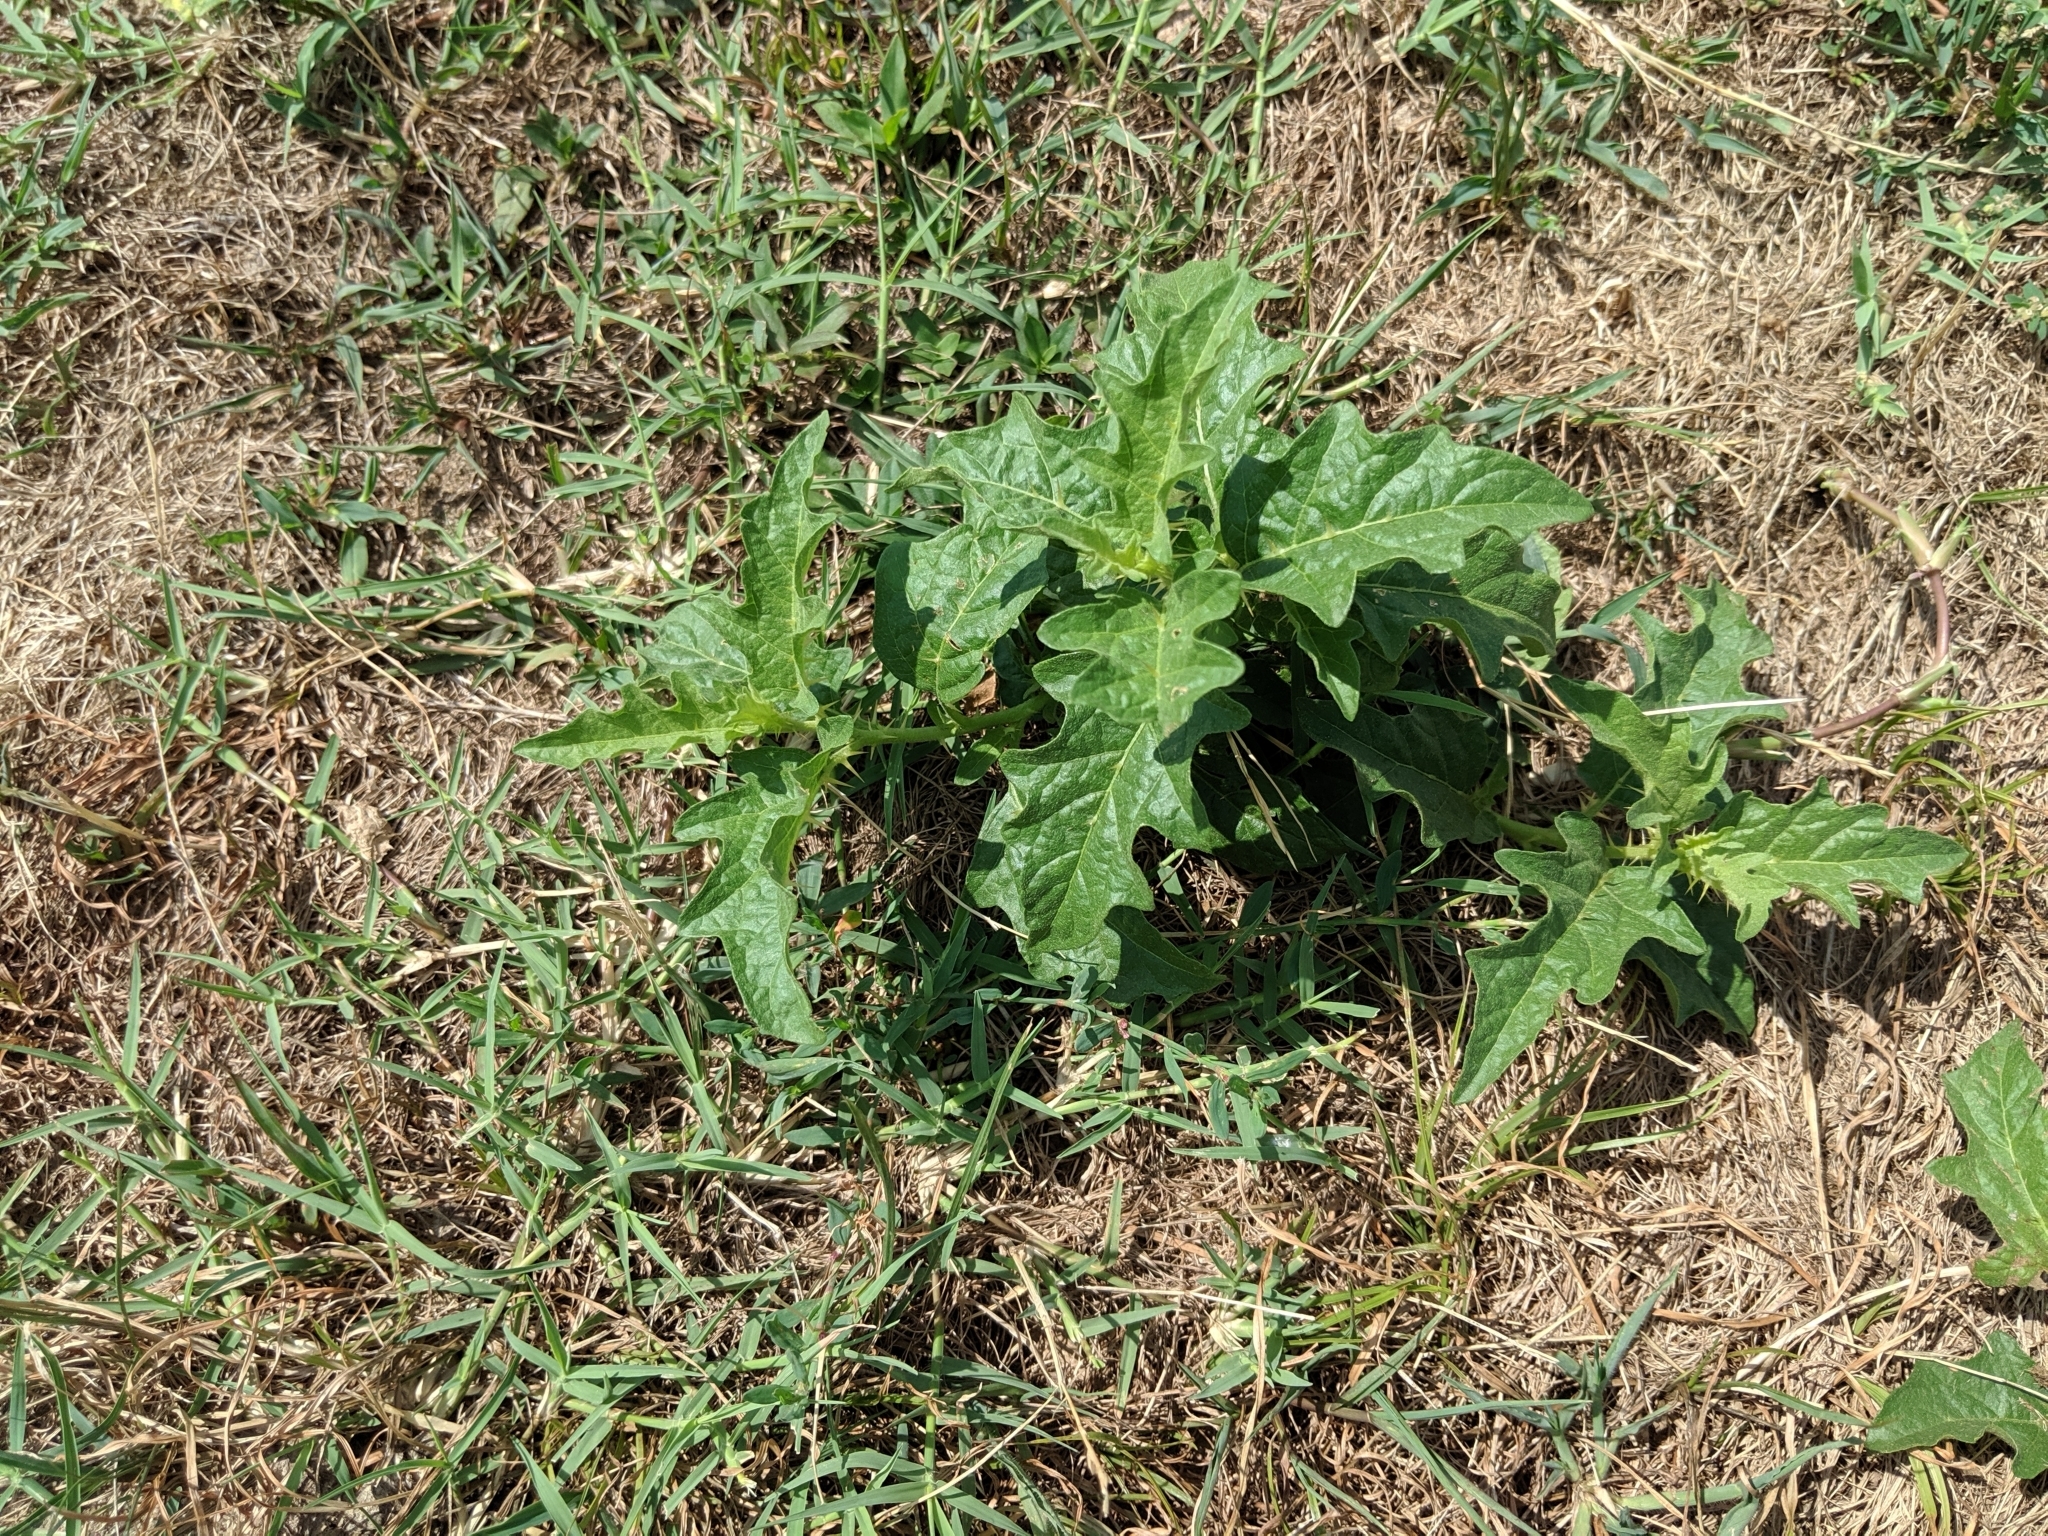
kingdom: Plantae
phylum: Tracheophyta
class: Magnoliopsida
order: Solanales
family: Solanaceae
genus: Solanum
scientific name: Solanum carolinense
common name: Horse-nettle
